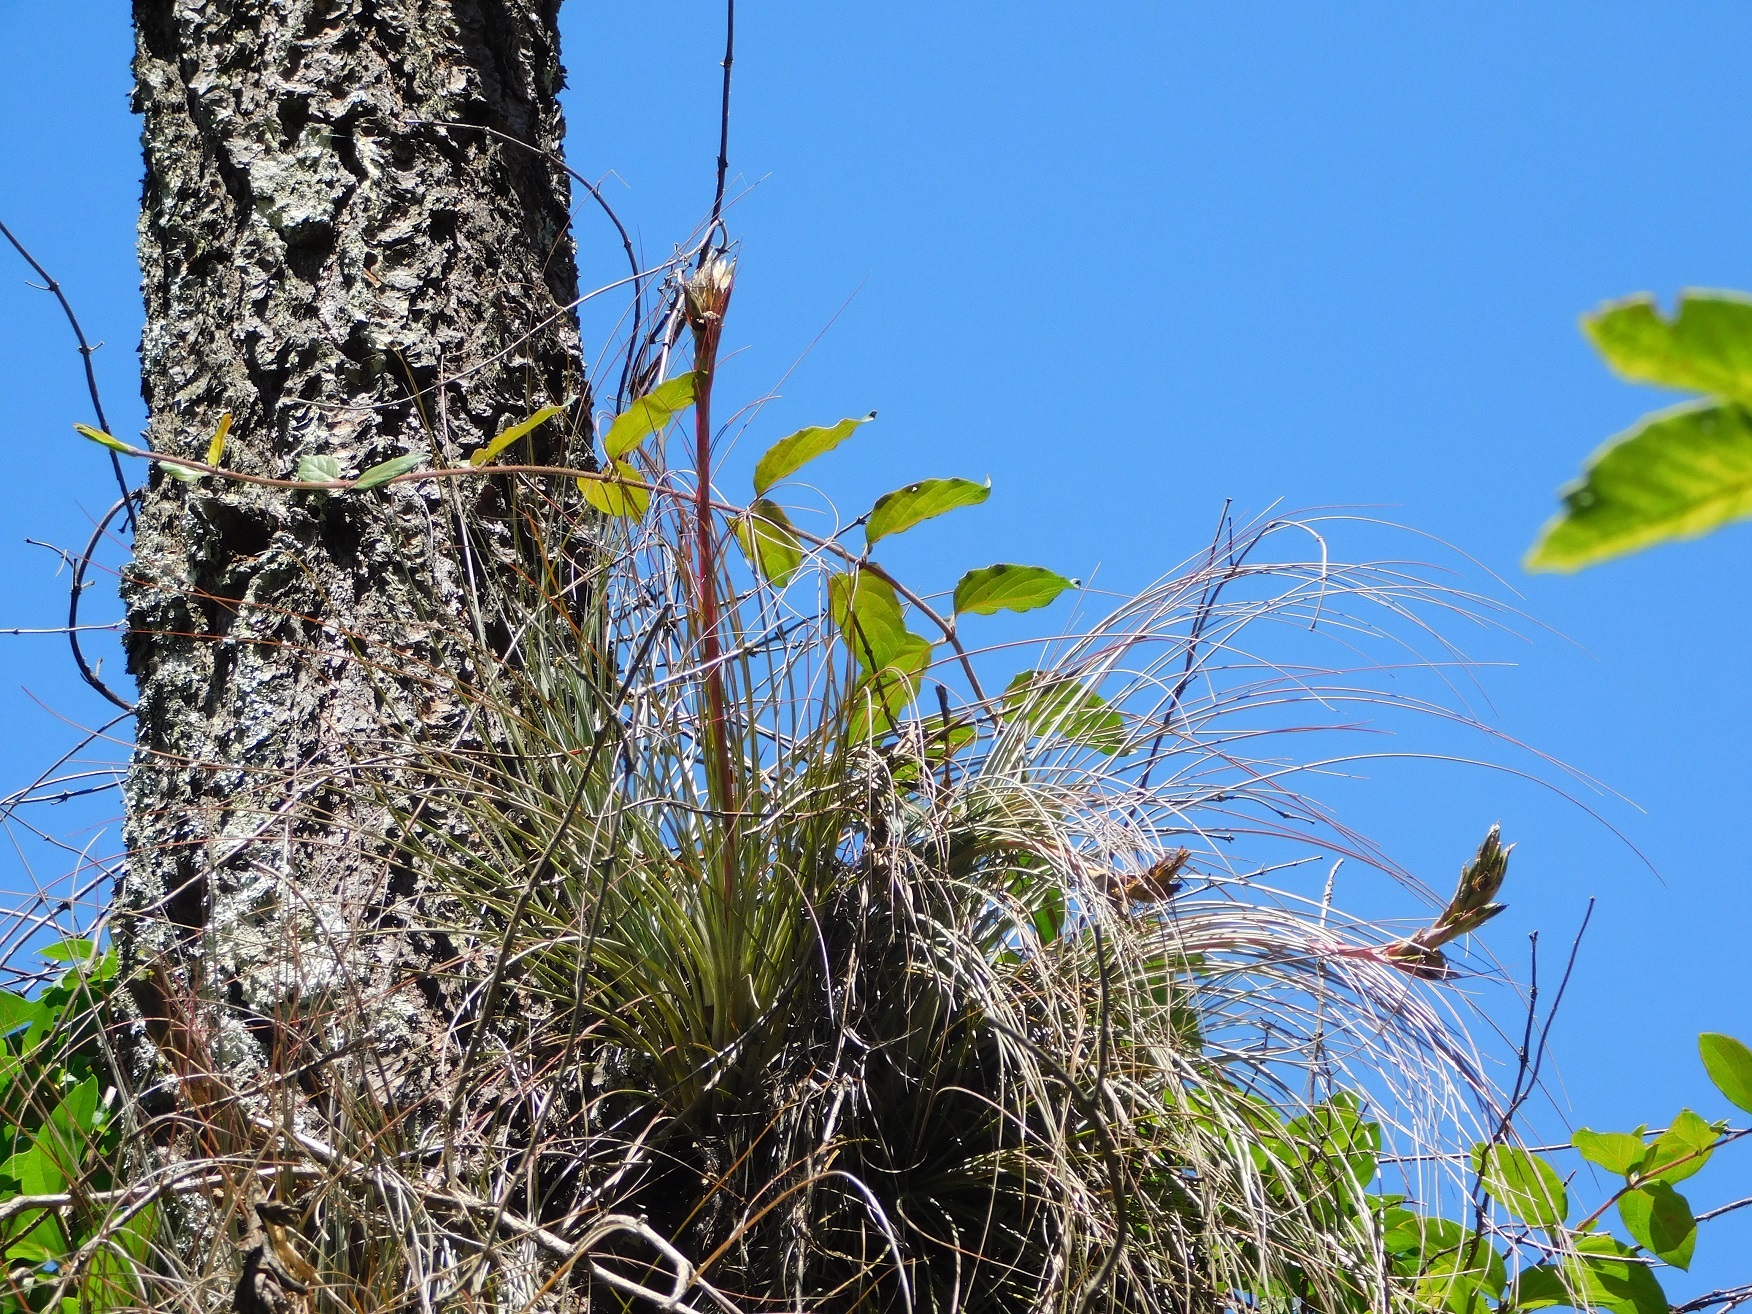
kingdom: Plantae
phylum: Tracheophyta
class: Liliopsida
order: Poales
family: Bromeliaceae
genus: Tillandsia
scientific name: Tillandsia juncea
